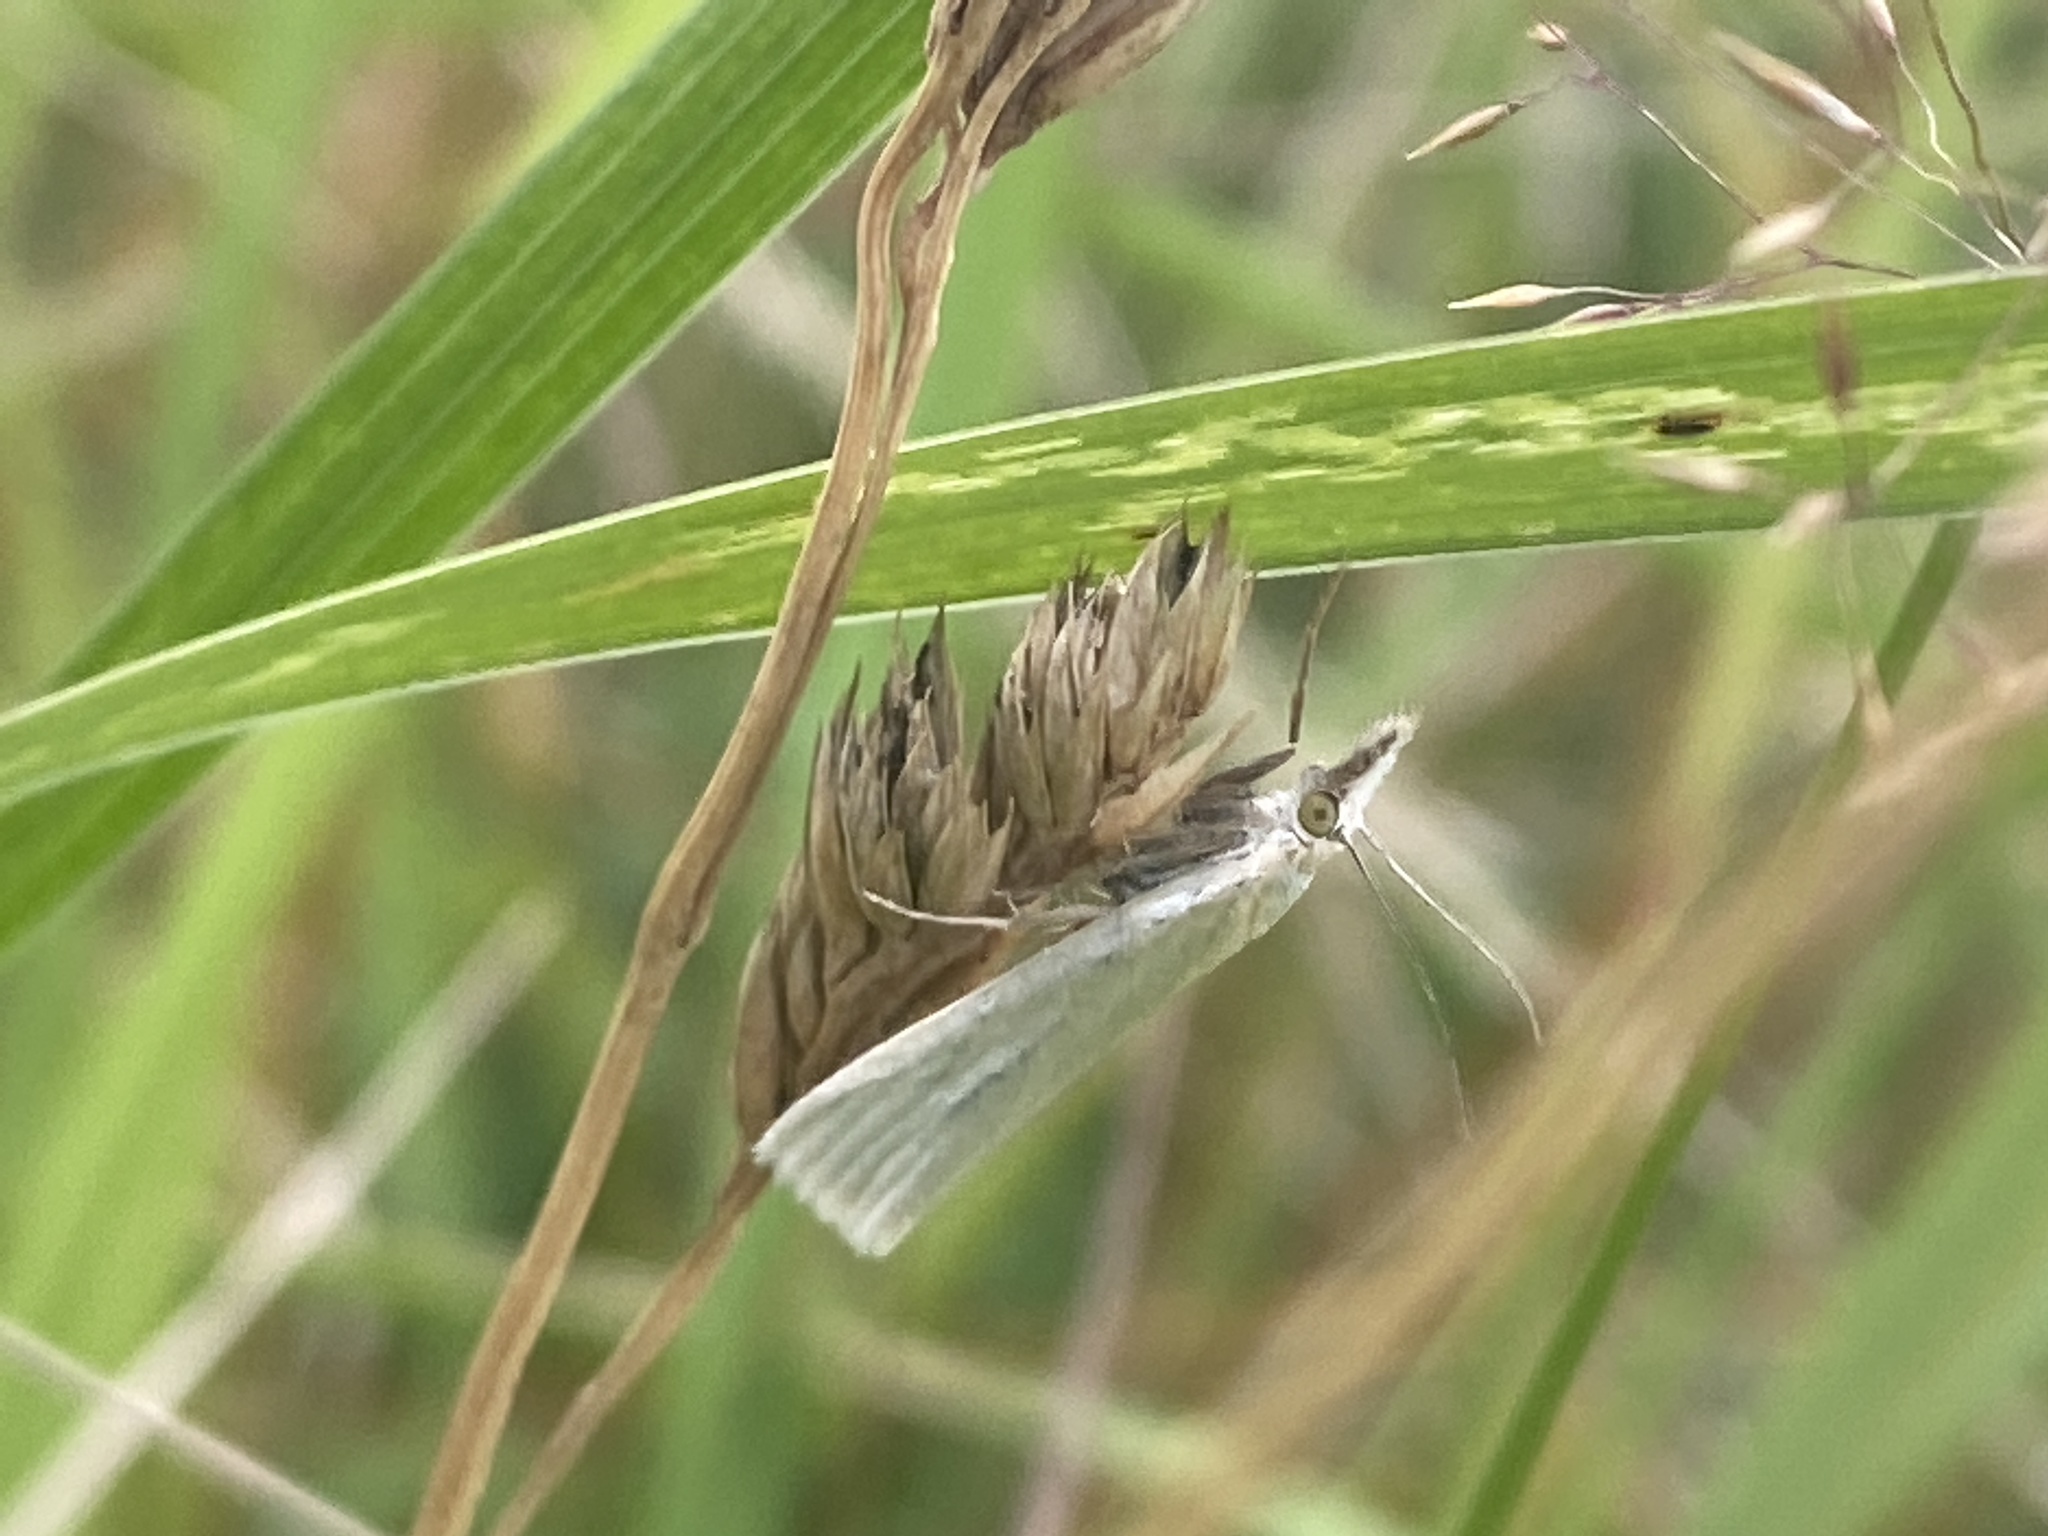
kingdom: Animalia
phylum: Arthropoda
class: Insecta
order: Lepidoptera
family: Crambidae
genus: Crambus
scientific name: Crambus perlellus
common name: Yellow satin veneer
